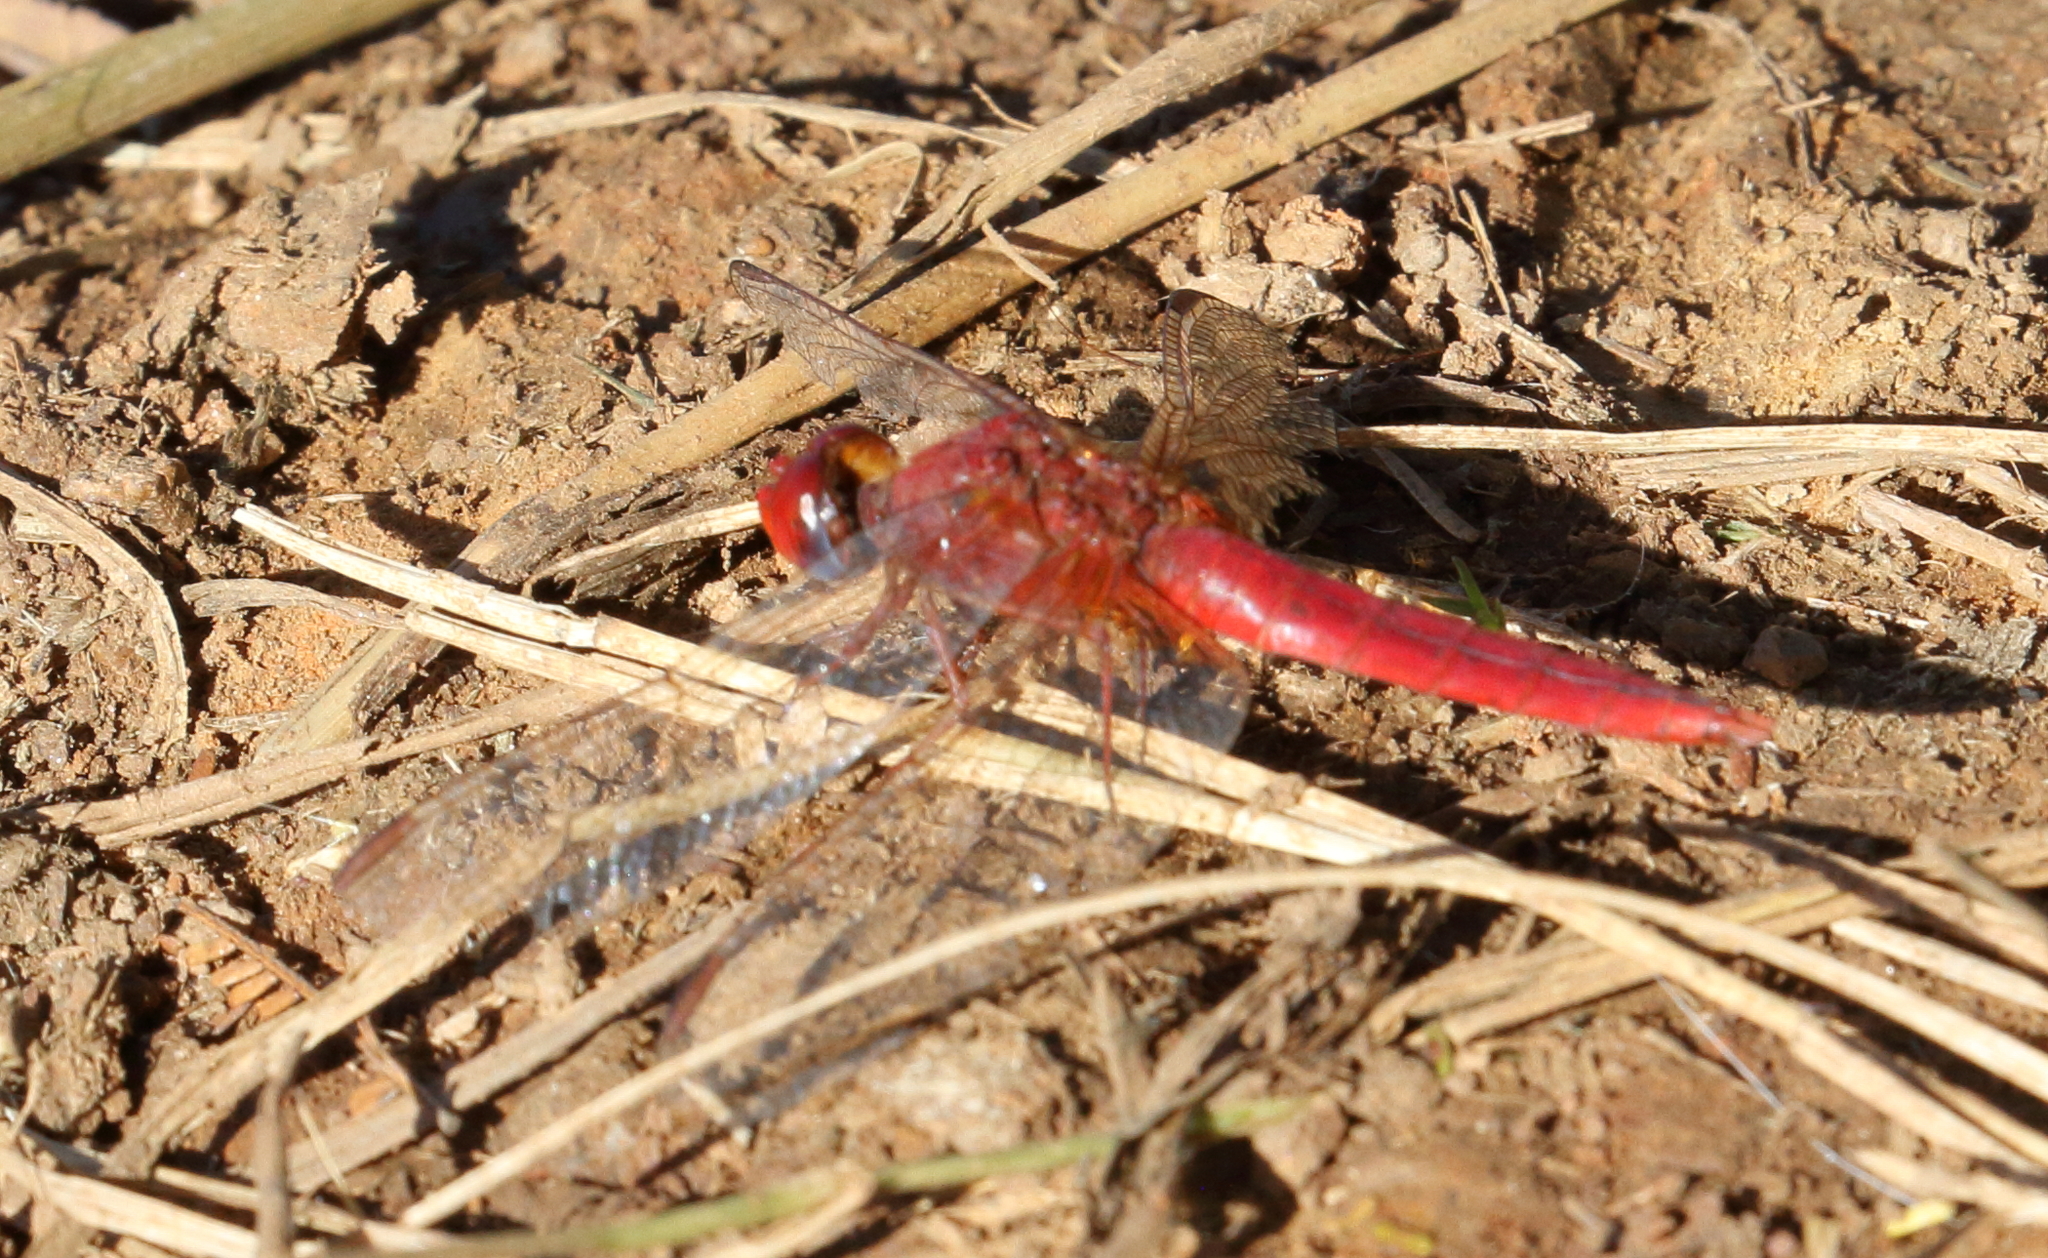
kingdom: Animalia
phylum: Arthropoda
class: Insecta
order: Odonata
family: Libellulidae
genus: Crocothemis
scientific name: Crocothemis erythraea
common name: Scarlet dragonfly
